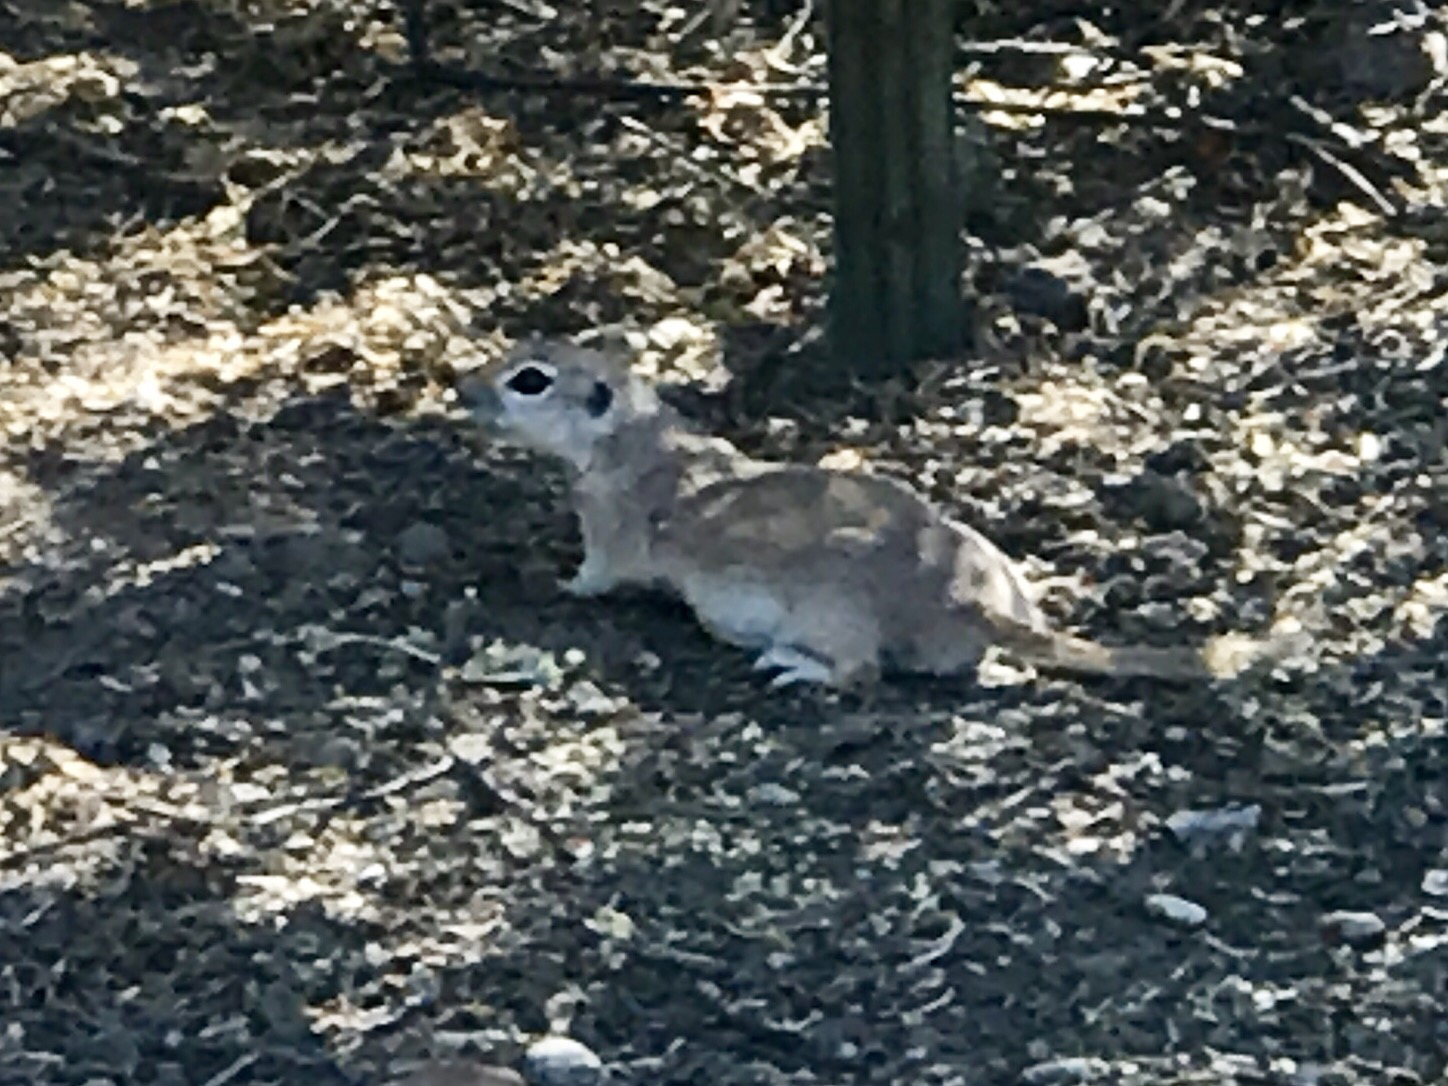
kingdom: Animalia
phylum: Chordata
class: Mammalia
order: Rodentia
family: Sciuridae
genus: Xerospermophilus
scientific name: Xerospermophilus tereticaudus
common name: Round-tailed ground squirrel
